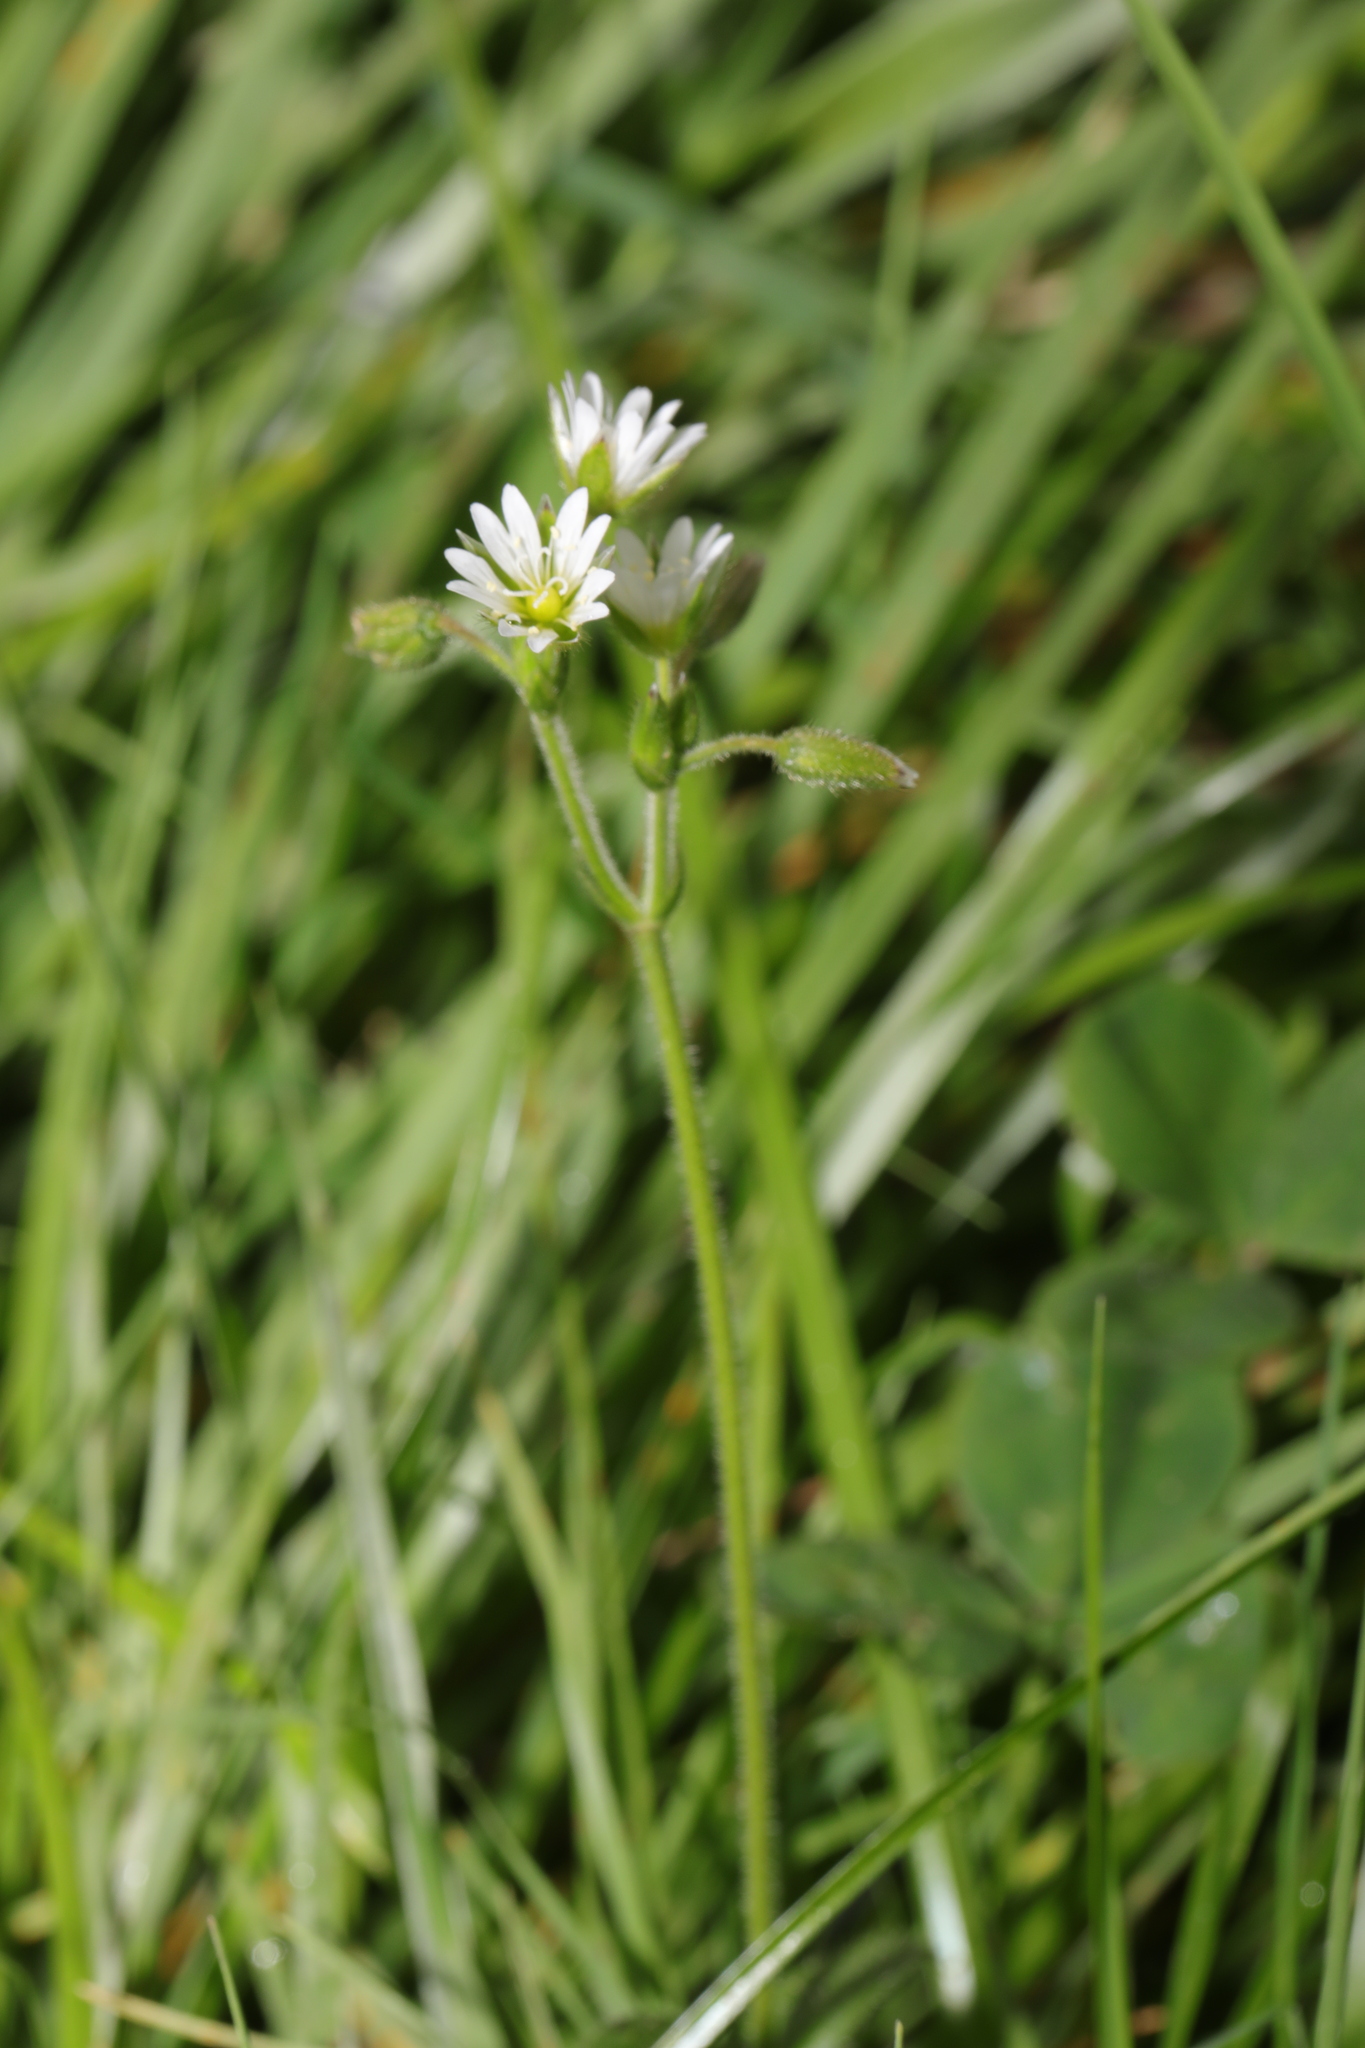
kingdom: Plantae
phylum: Tracheophyta
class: Magnoliopsida
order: Caryophyllales
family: Caryophyllaceae
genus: Cerastium
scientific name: Cerastium fontanum
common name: Common mouse-ear
